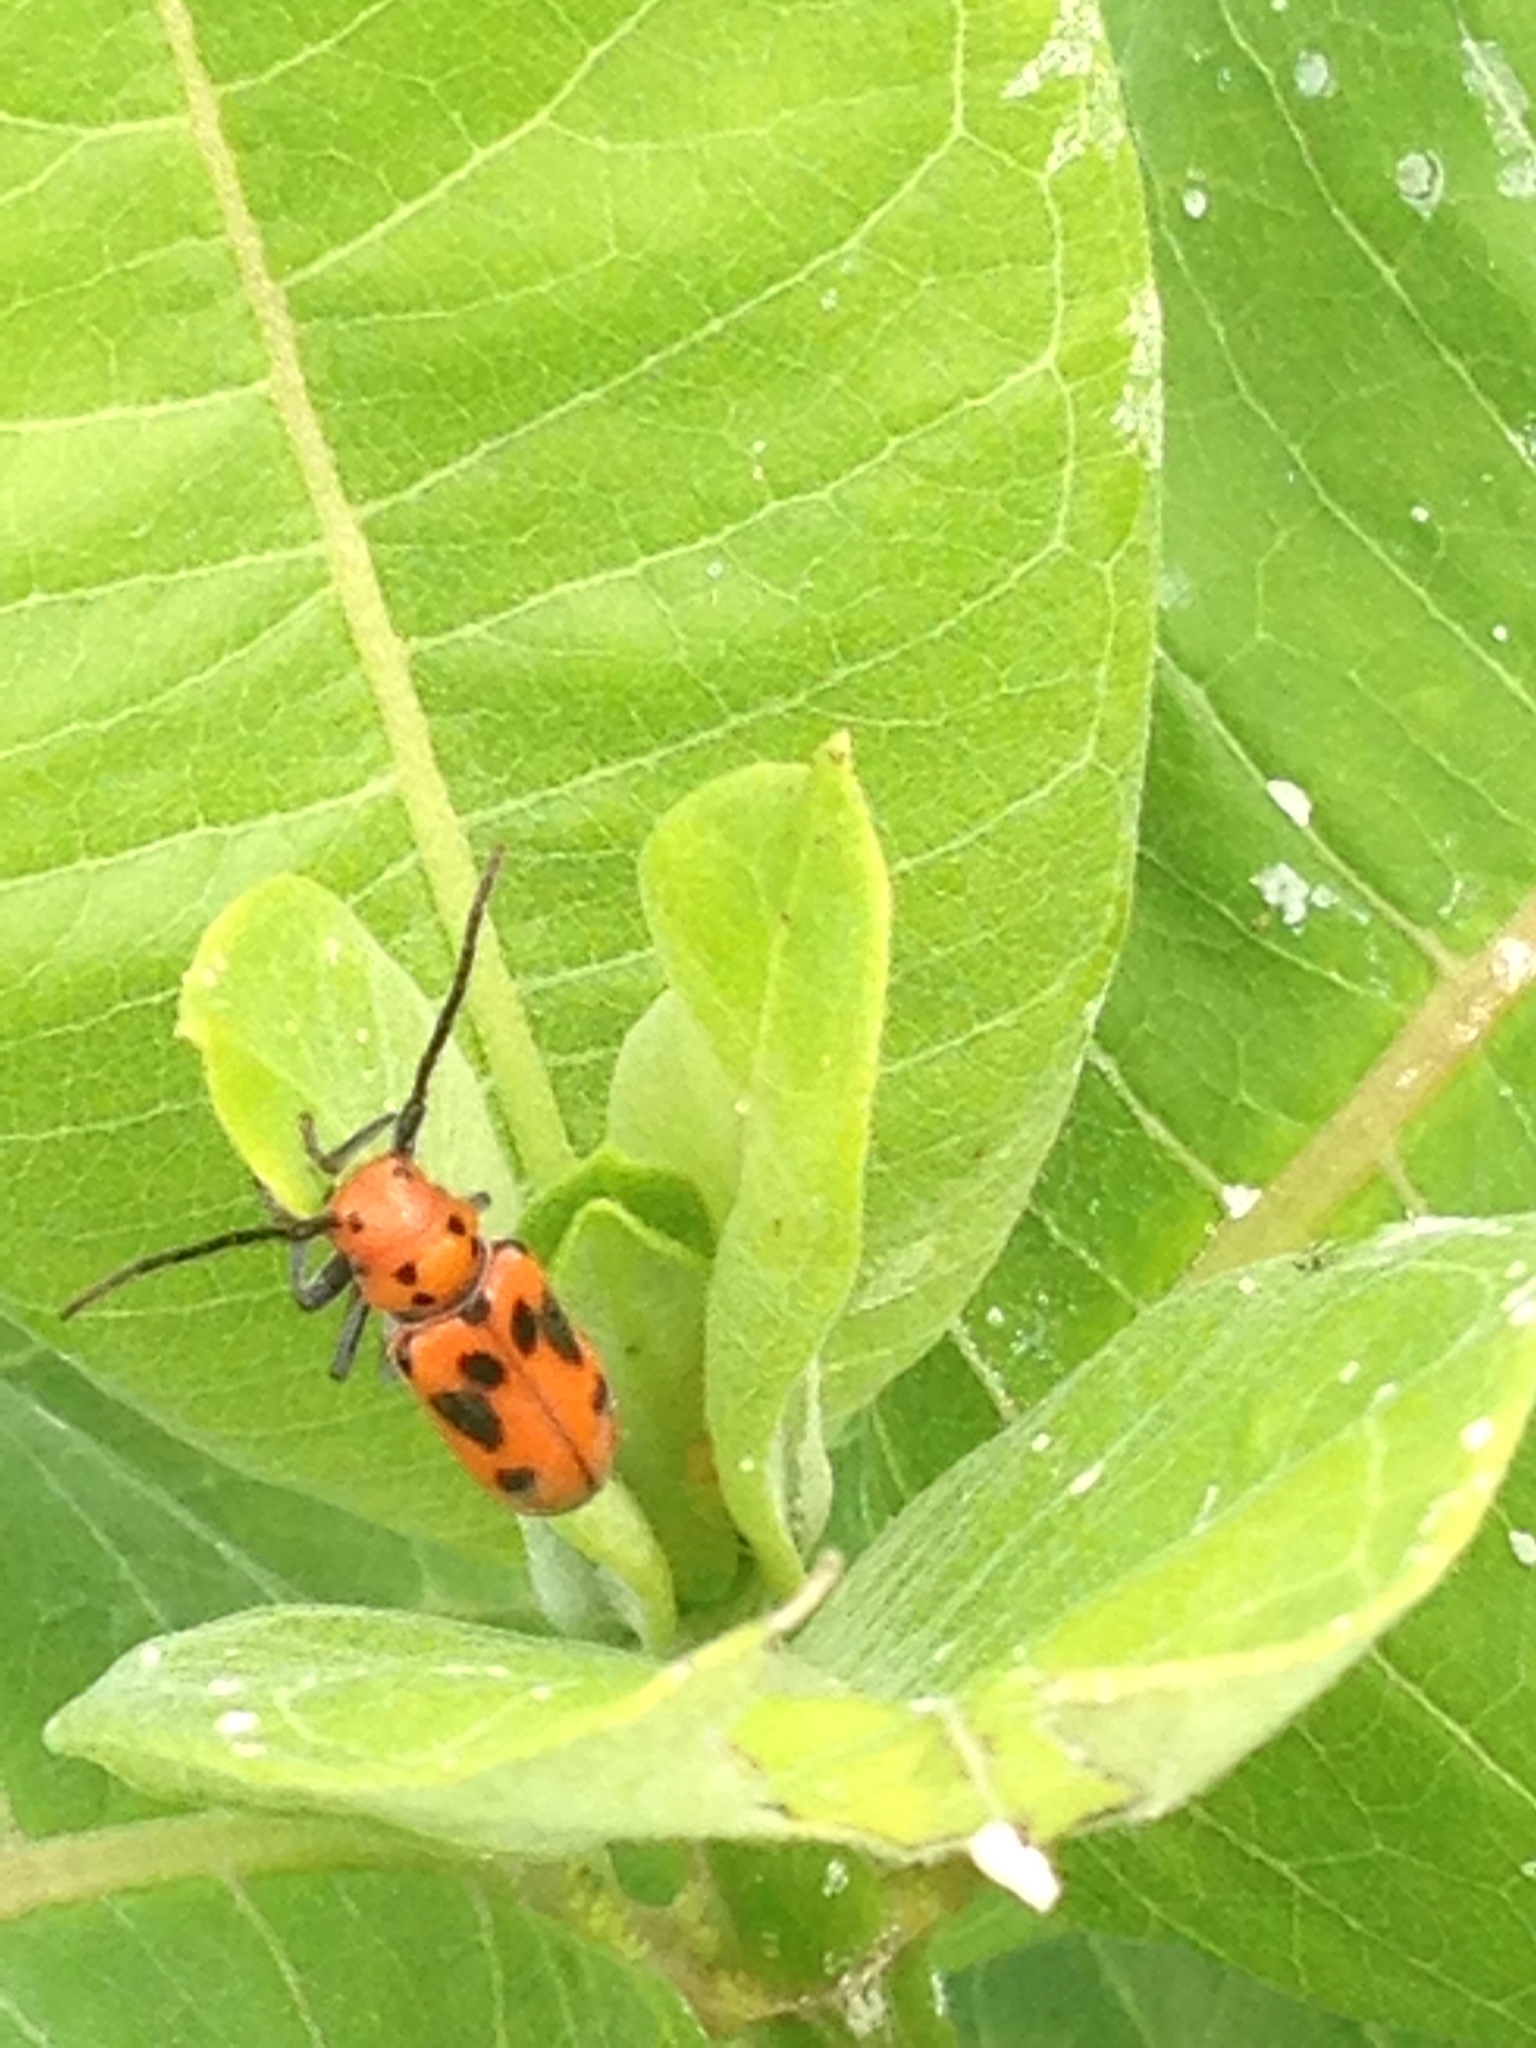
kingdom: Animalia
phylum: Arthropoda
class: Insecta
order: Coleoptera
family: Cerambycidae
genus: Tetraopes
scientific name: Tetraopes tetrophthalmus
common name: Red milkweed beetle
